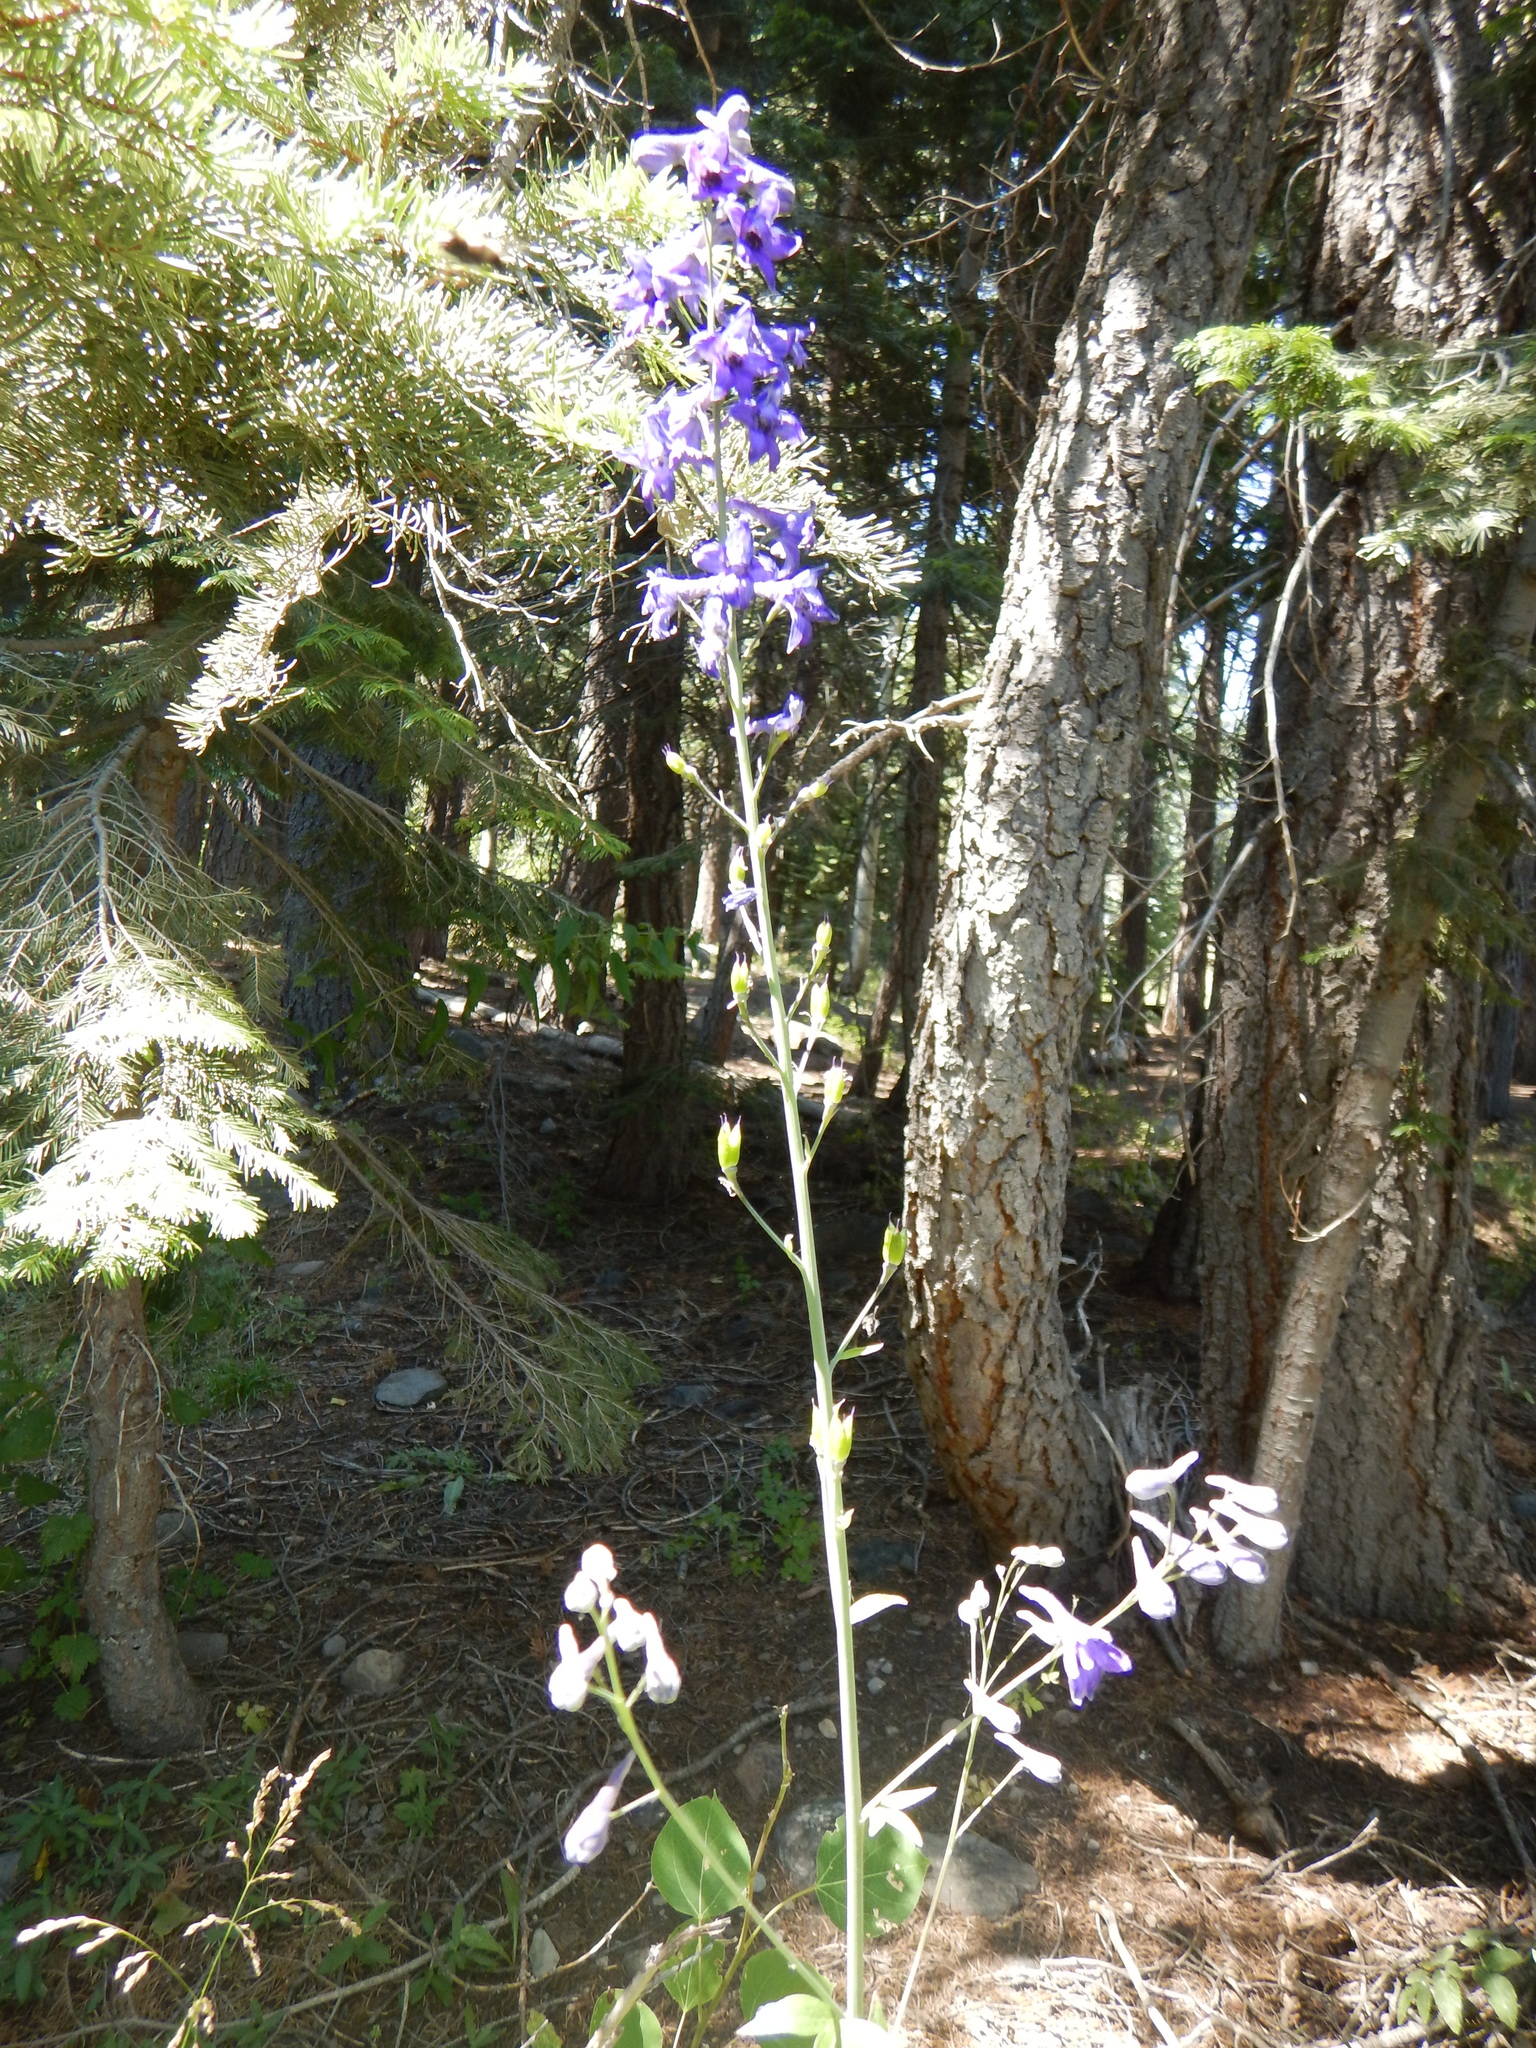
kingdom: Plantae
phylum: Tracheophyta
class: Magnoliopsida
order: Ranunculales
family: Ranunculaceae
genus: Delphinium
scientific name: Delphinium glaucum
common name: Brown's larkspur
